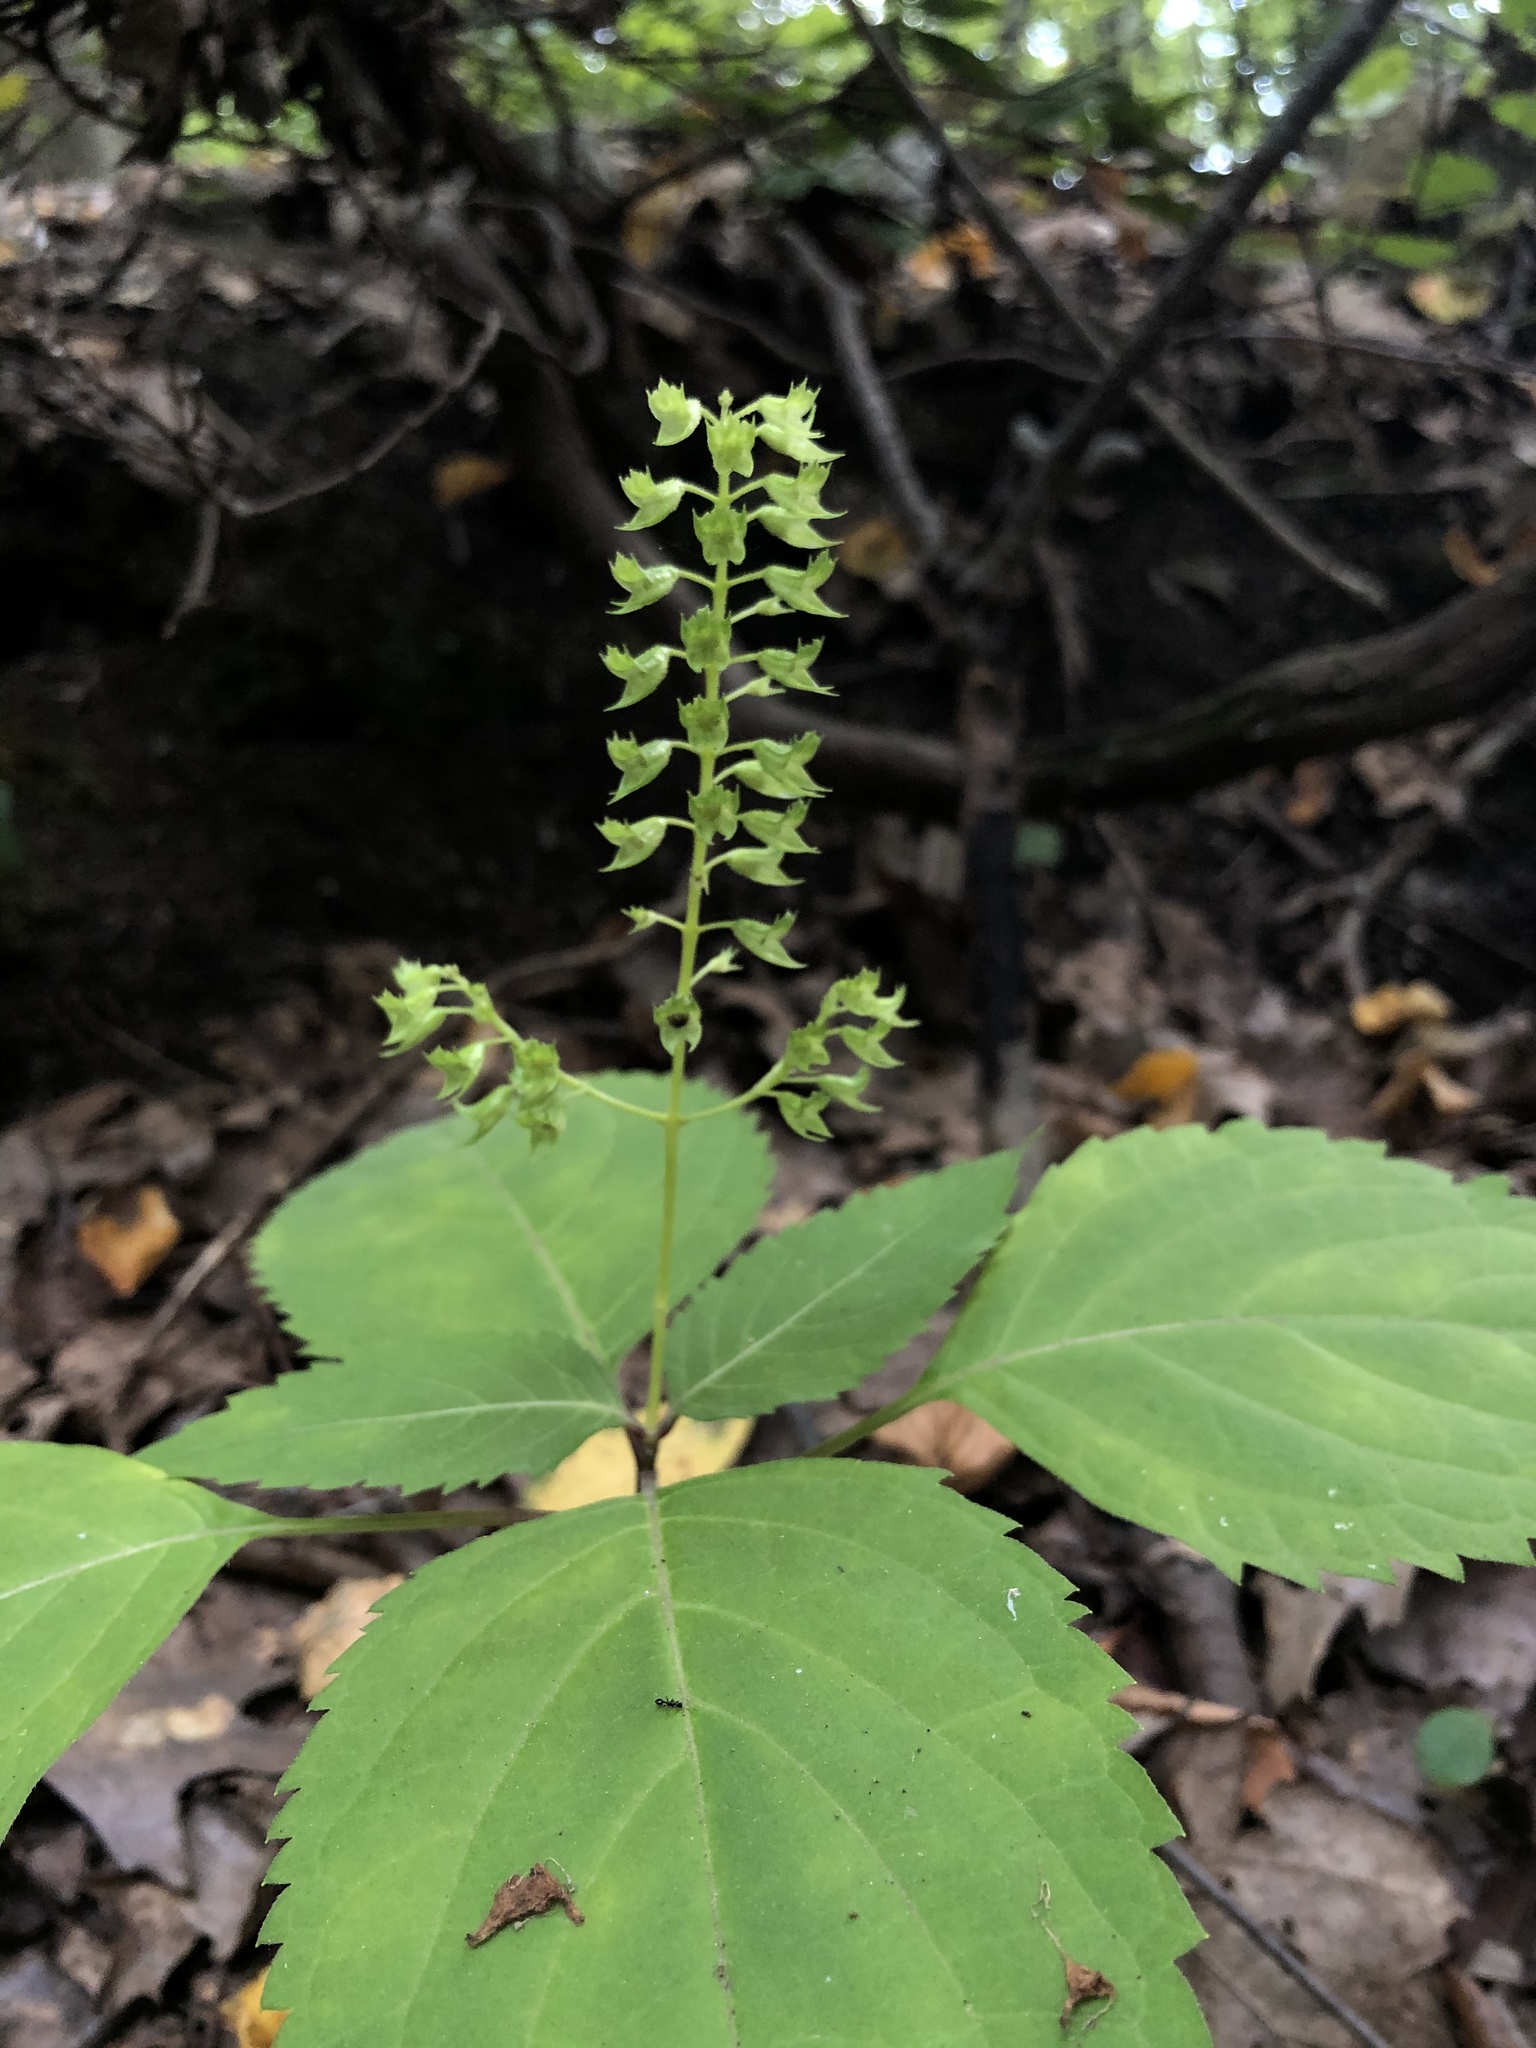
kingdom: Plantae
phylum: Tracheophyta
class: Magnoliopsida
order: Lamiales
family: Lamiaceae
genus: Collinsonia
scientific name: Collinsonia canadensis
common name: Northern horsebalm
